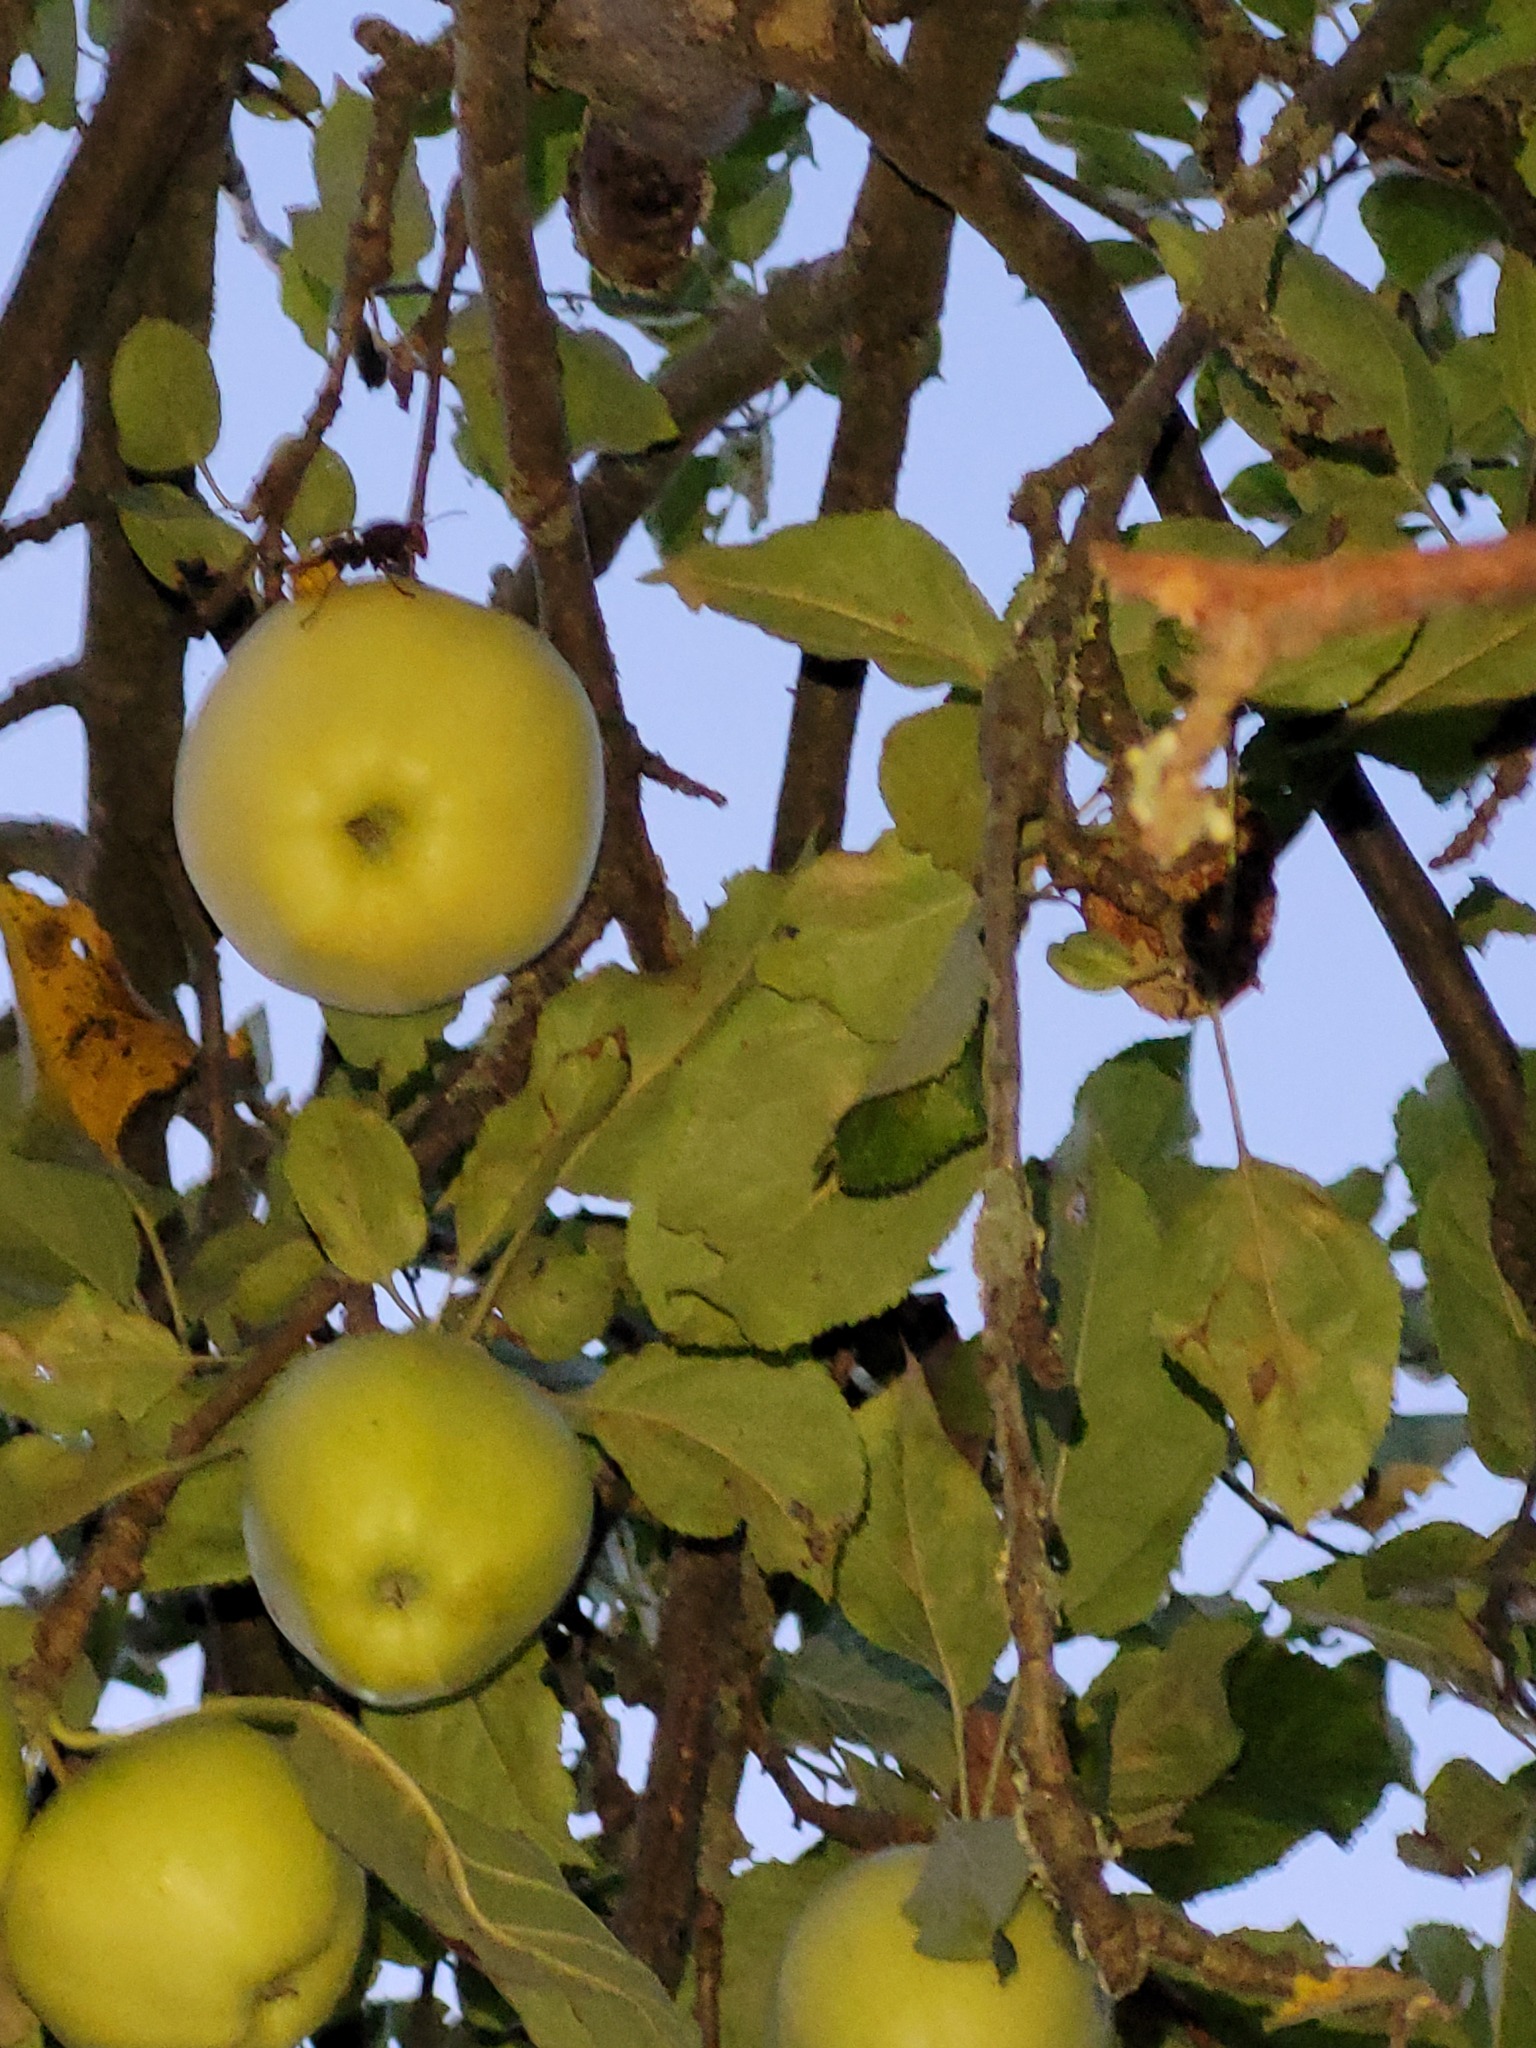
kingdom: Animalia
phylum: Arthropoda
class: Insecta
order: Hymenoptera
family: Vespidae
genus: Vespa
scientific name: Vespa crabro
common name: Hornet
